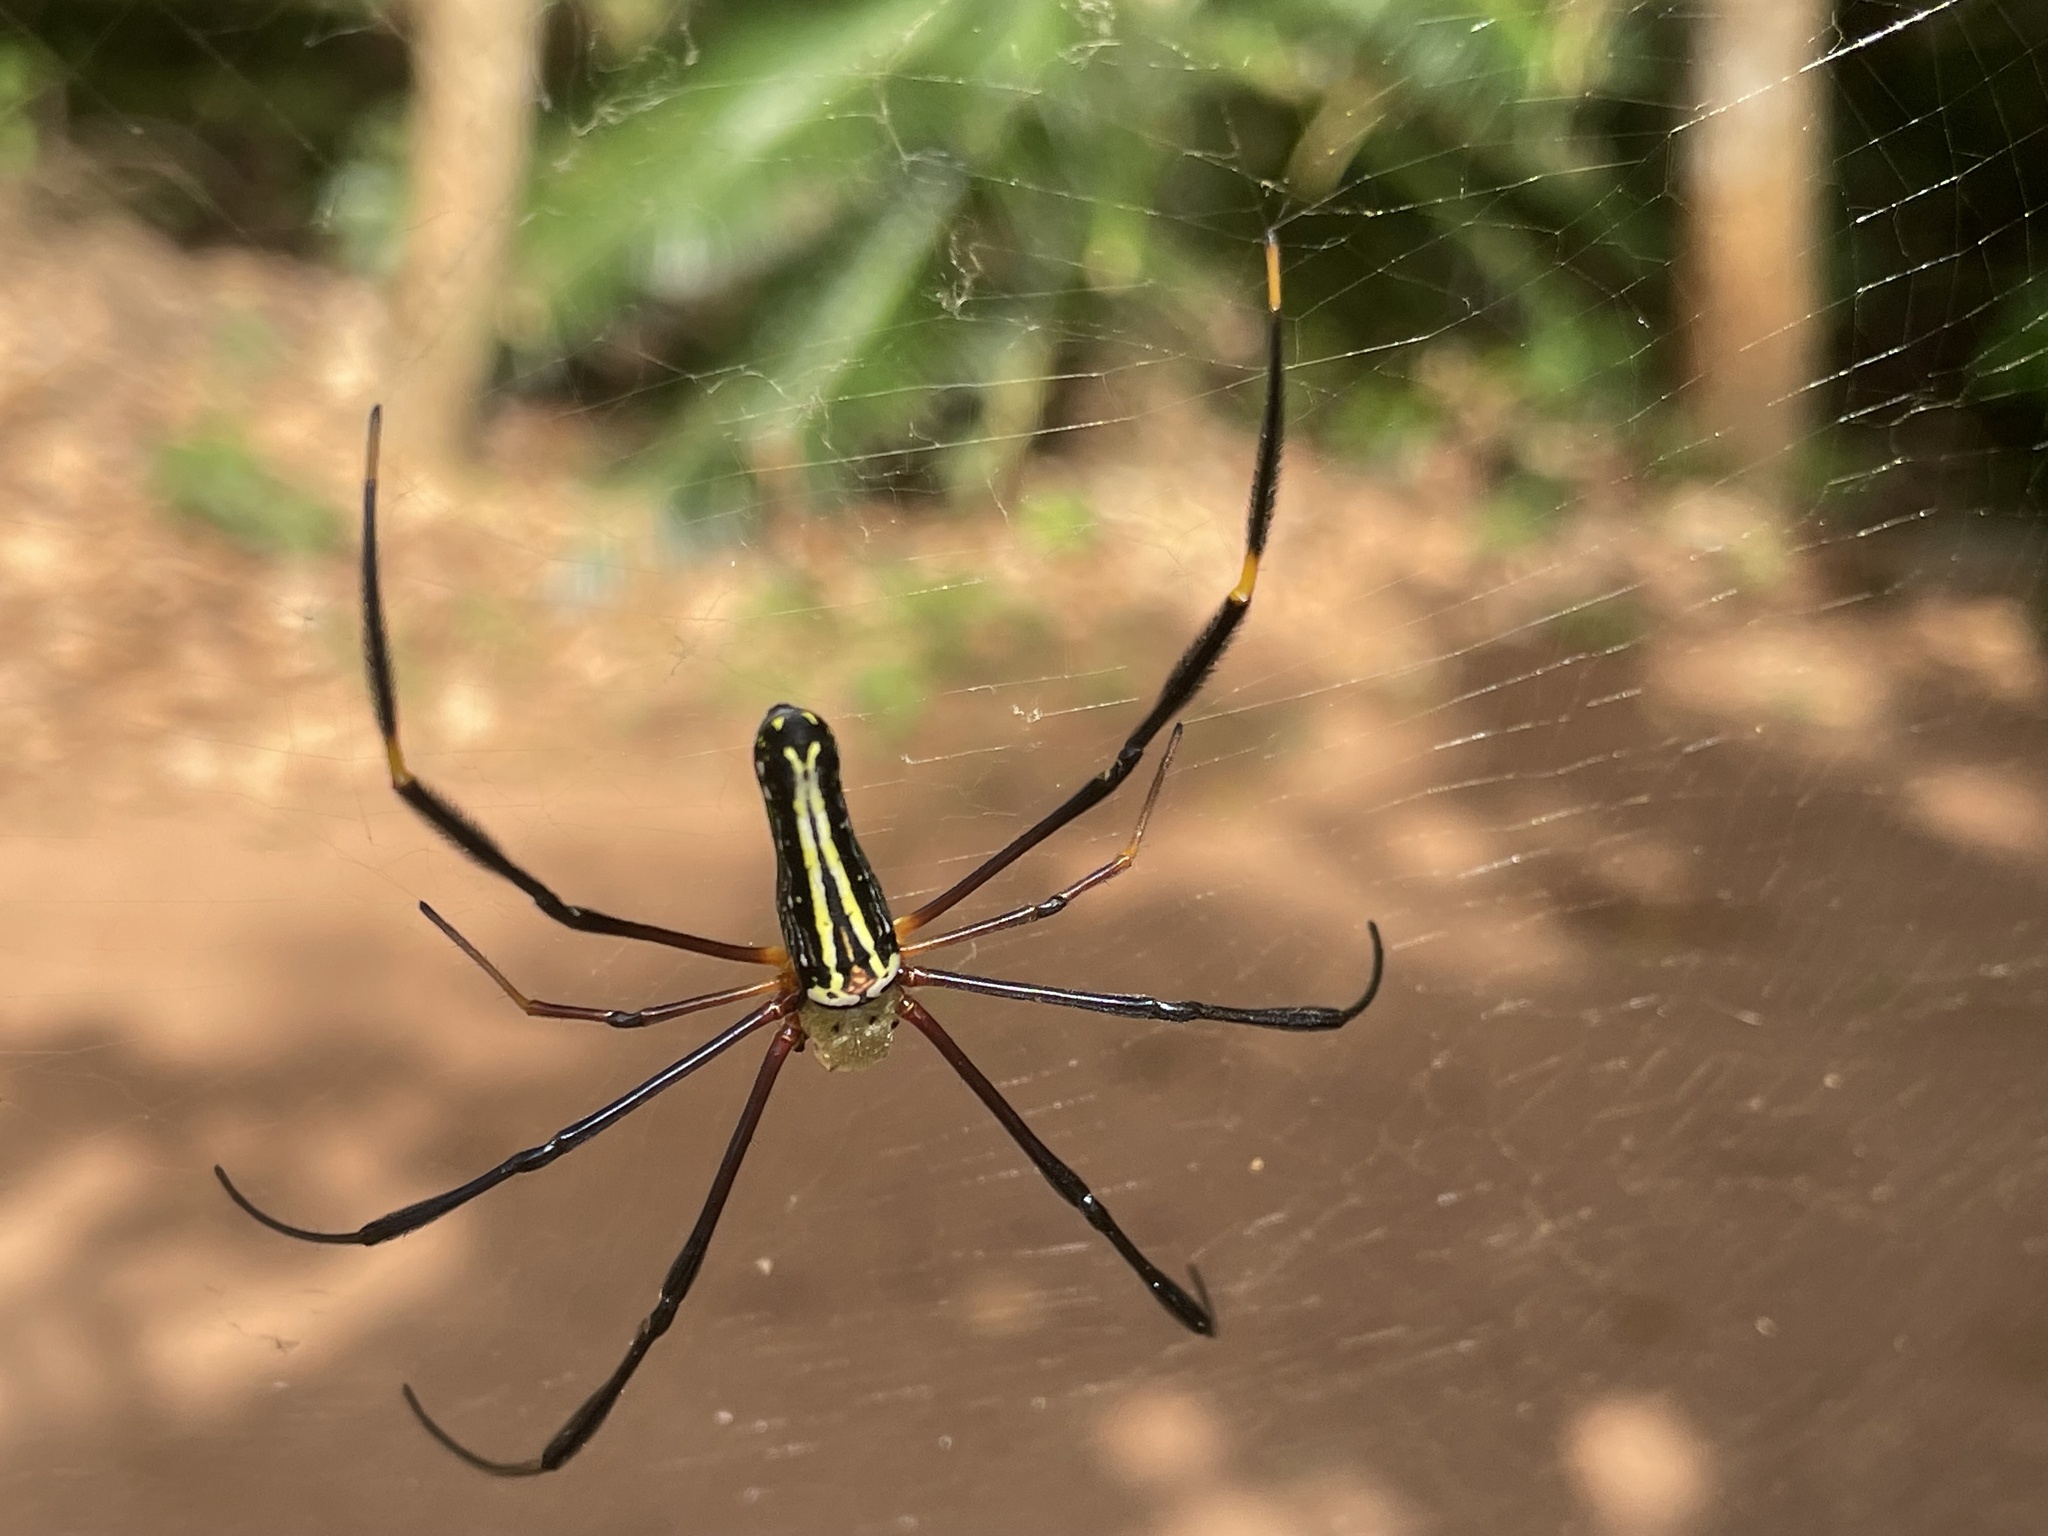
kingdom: Animalia
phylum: Arthropoda
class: Arachnida
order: Araneae
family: Araneidae
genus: Nephila
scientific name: Nephila pilipes
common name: Giant golden orb weaver
